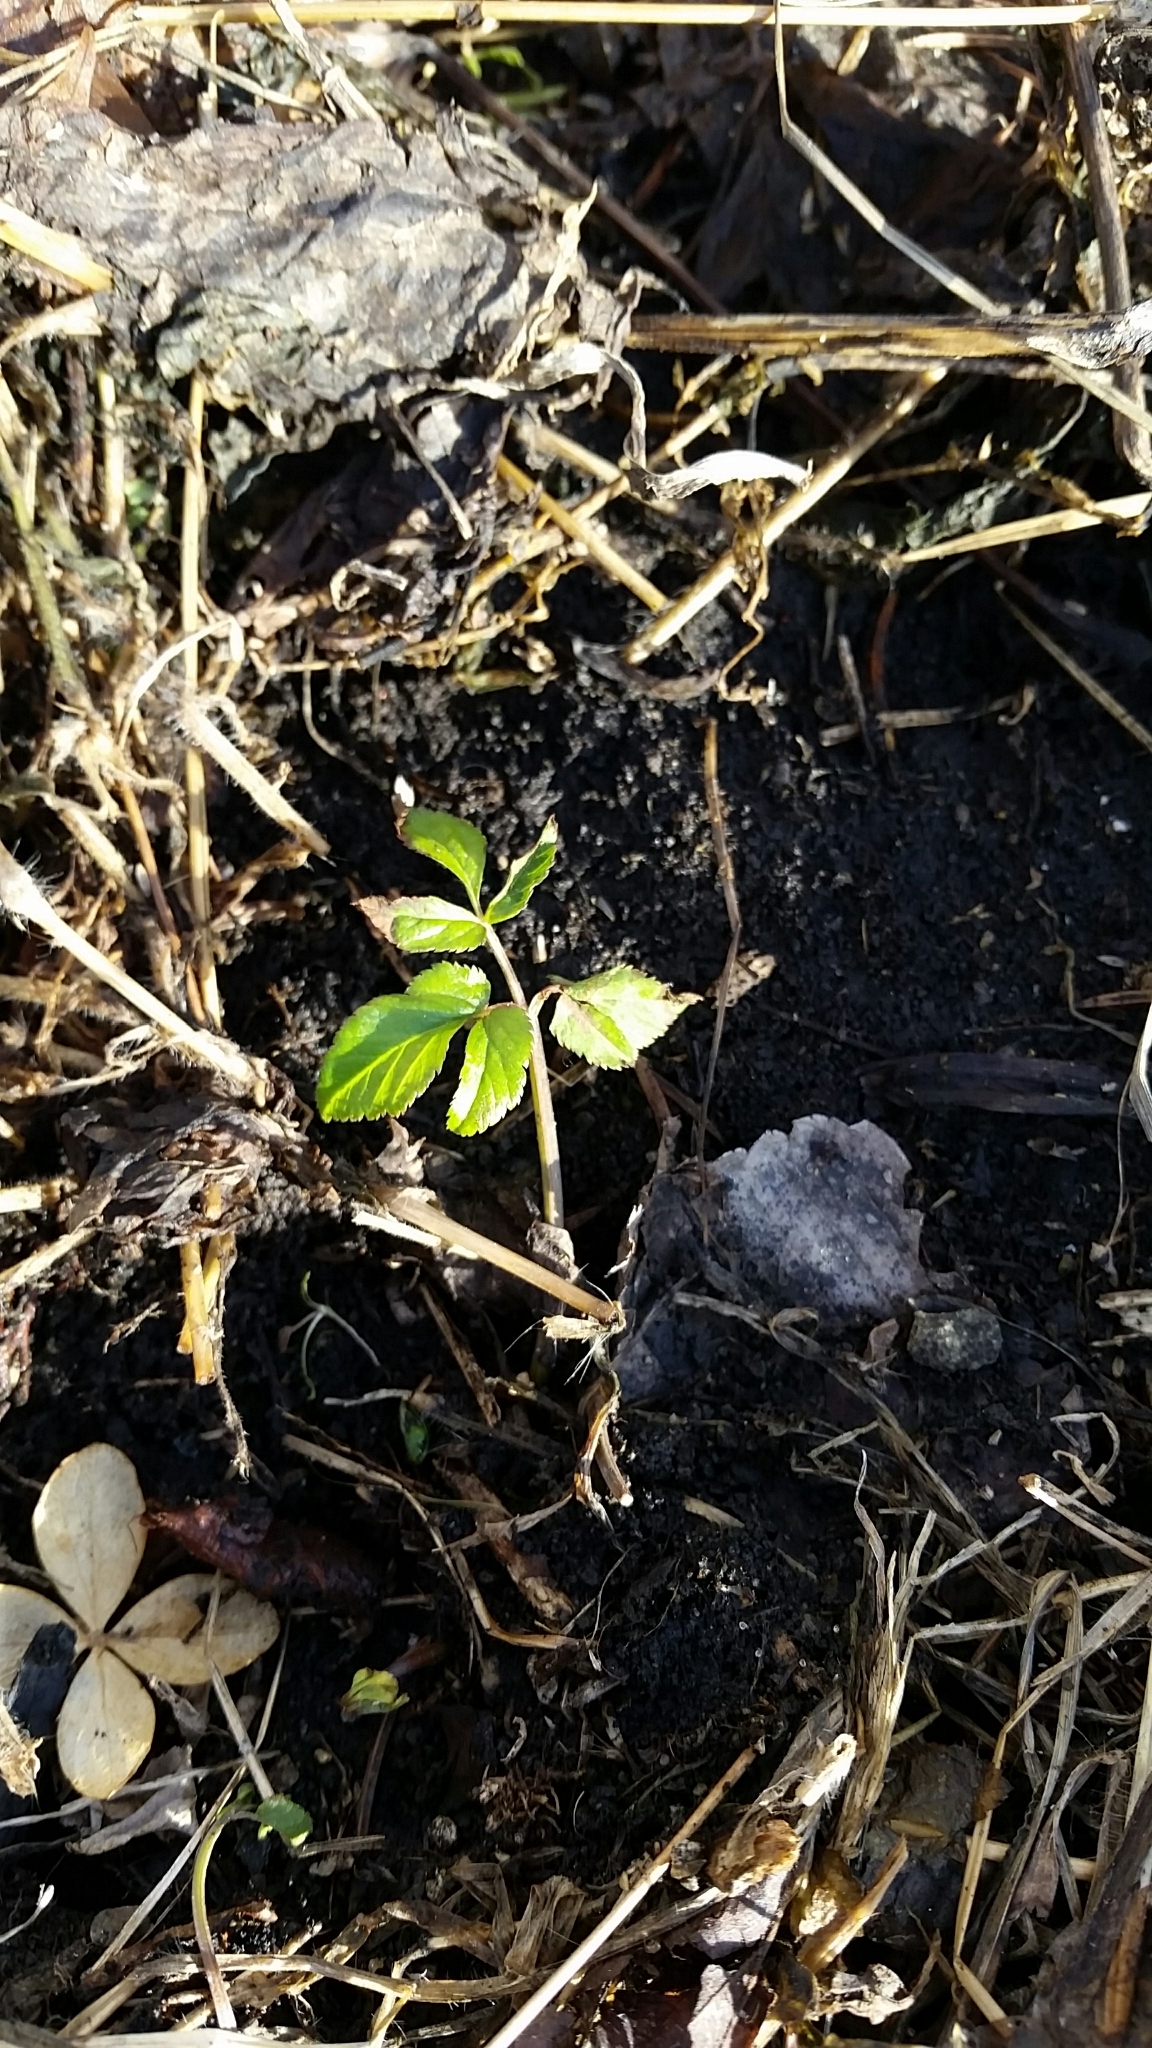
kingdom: Plantae
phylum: Tracheophyta
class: Magnoliopsida
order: Apiales
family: Apiaceae
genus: Aegopodium
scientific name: Aegopodium podagraria
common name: Ground-elder
